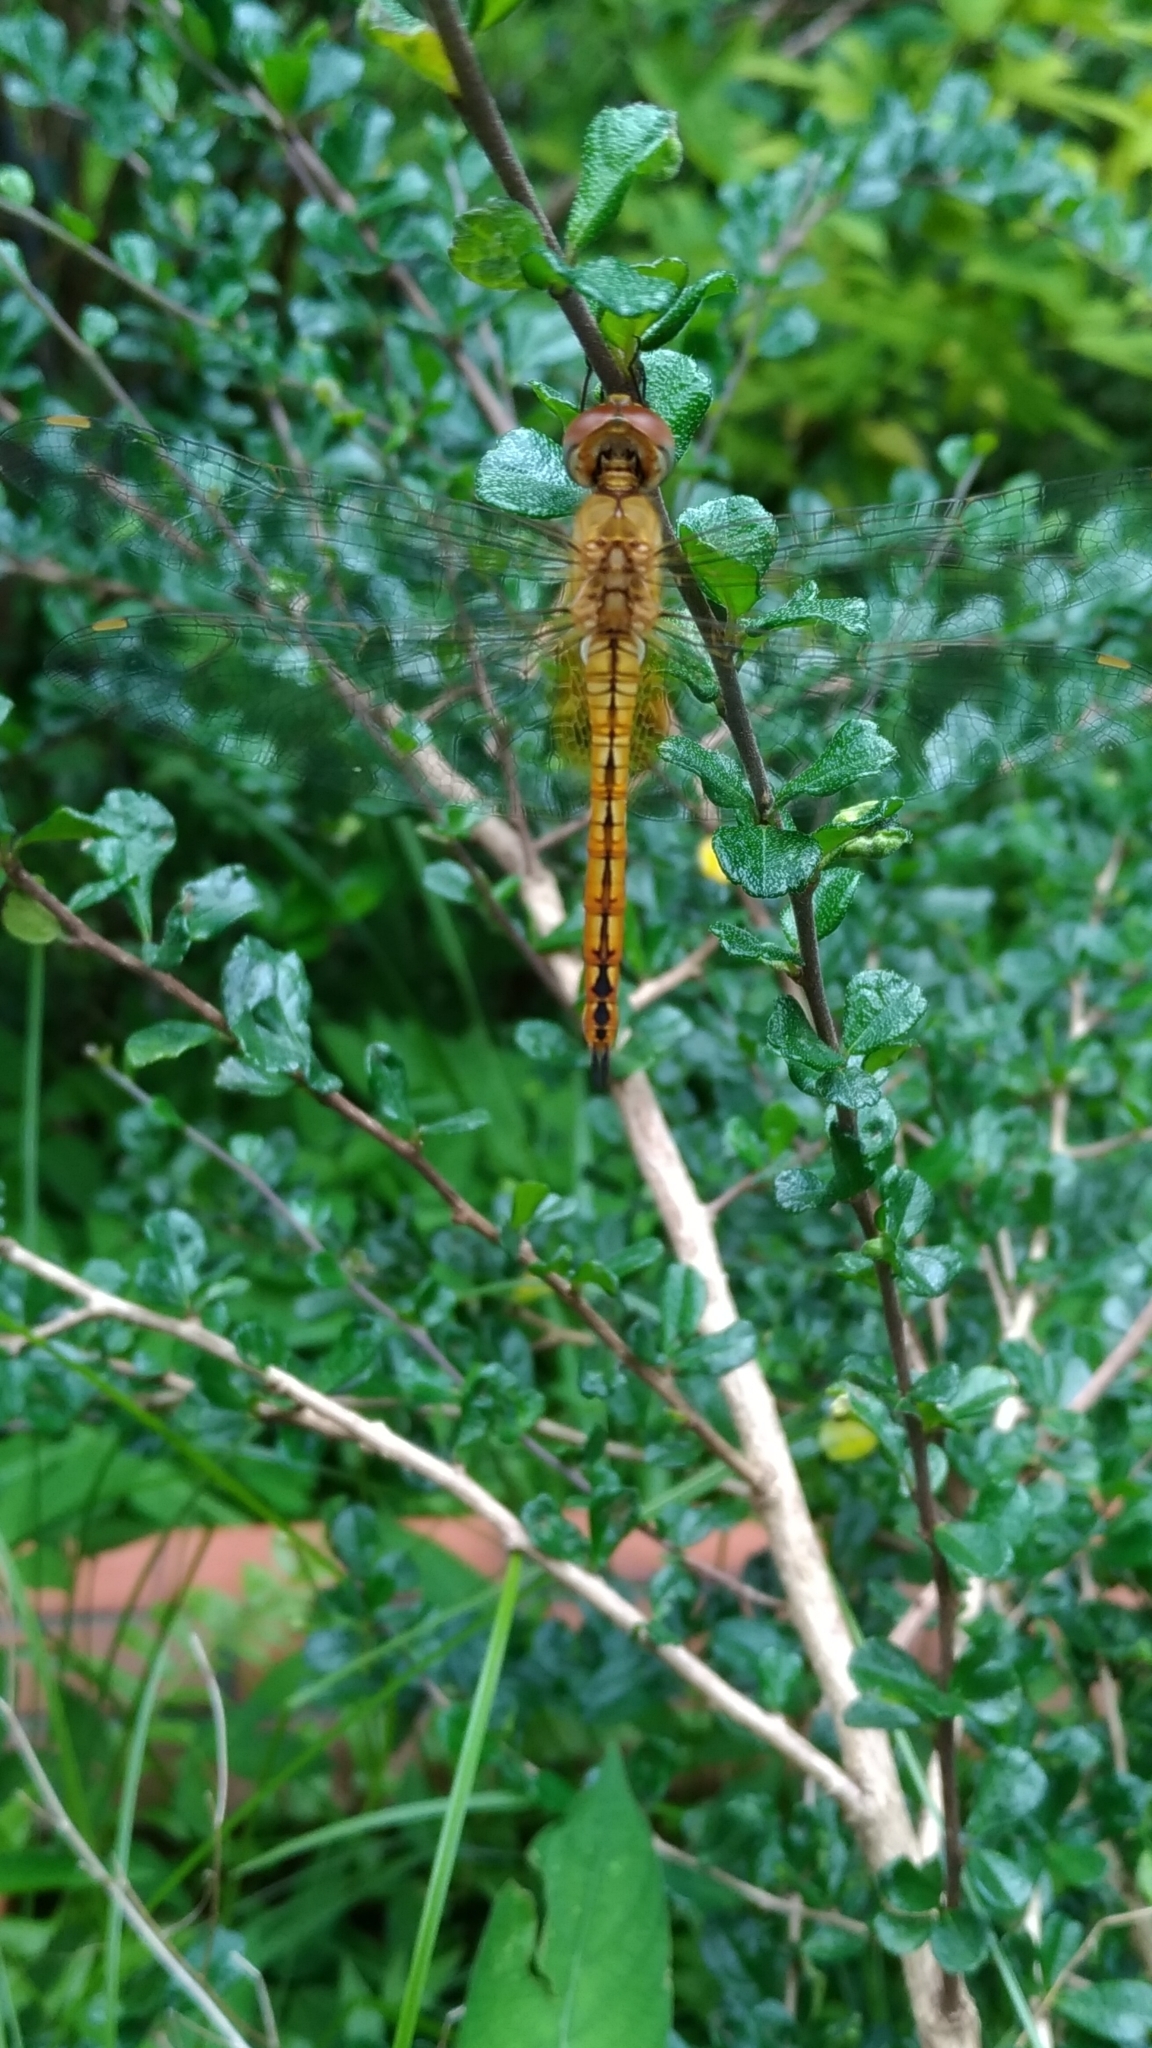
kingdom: Animalia
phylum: Arthropoda
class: Insecta
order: Odonata
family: Libellulidae
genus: Pantala
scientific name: Pantala flavescens
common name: Wandering glider
